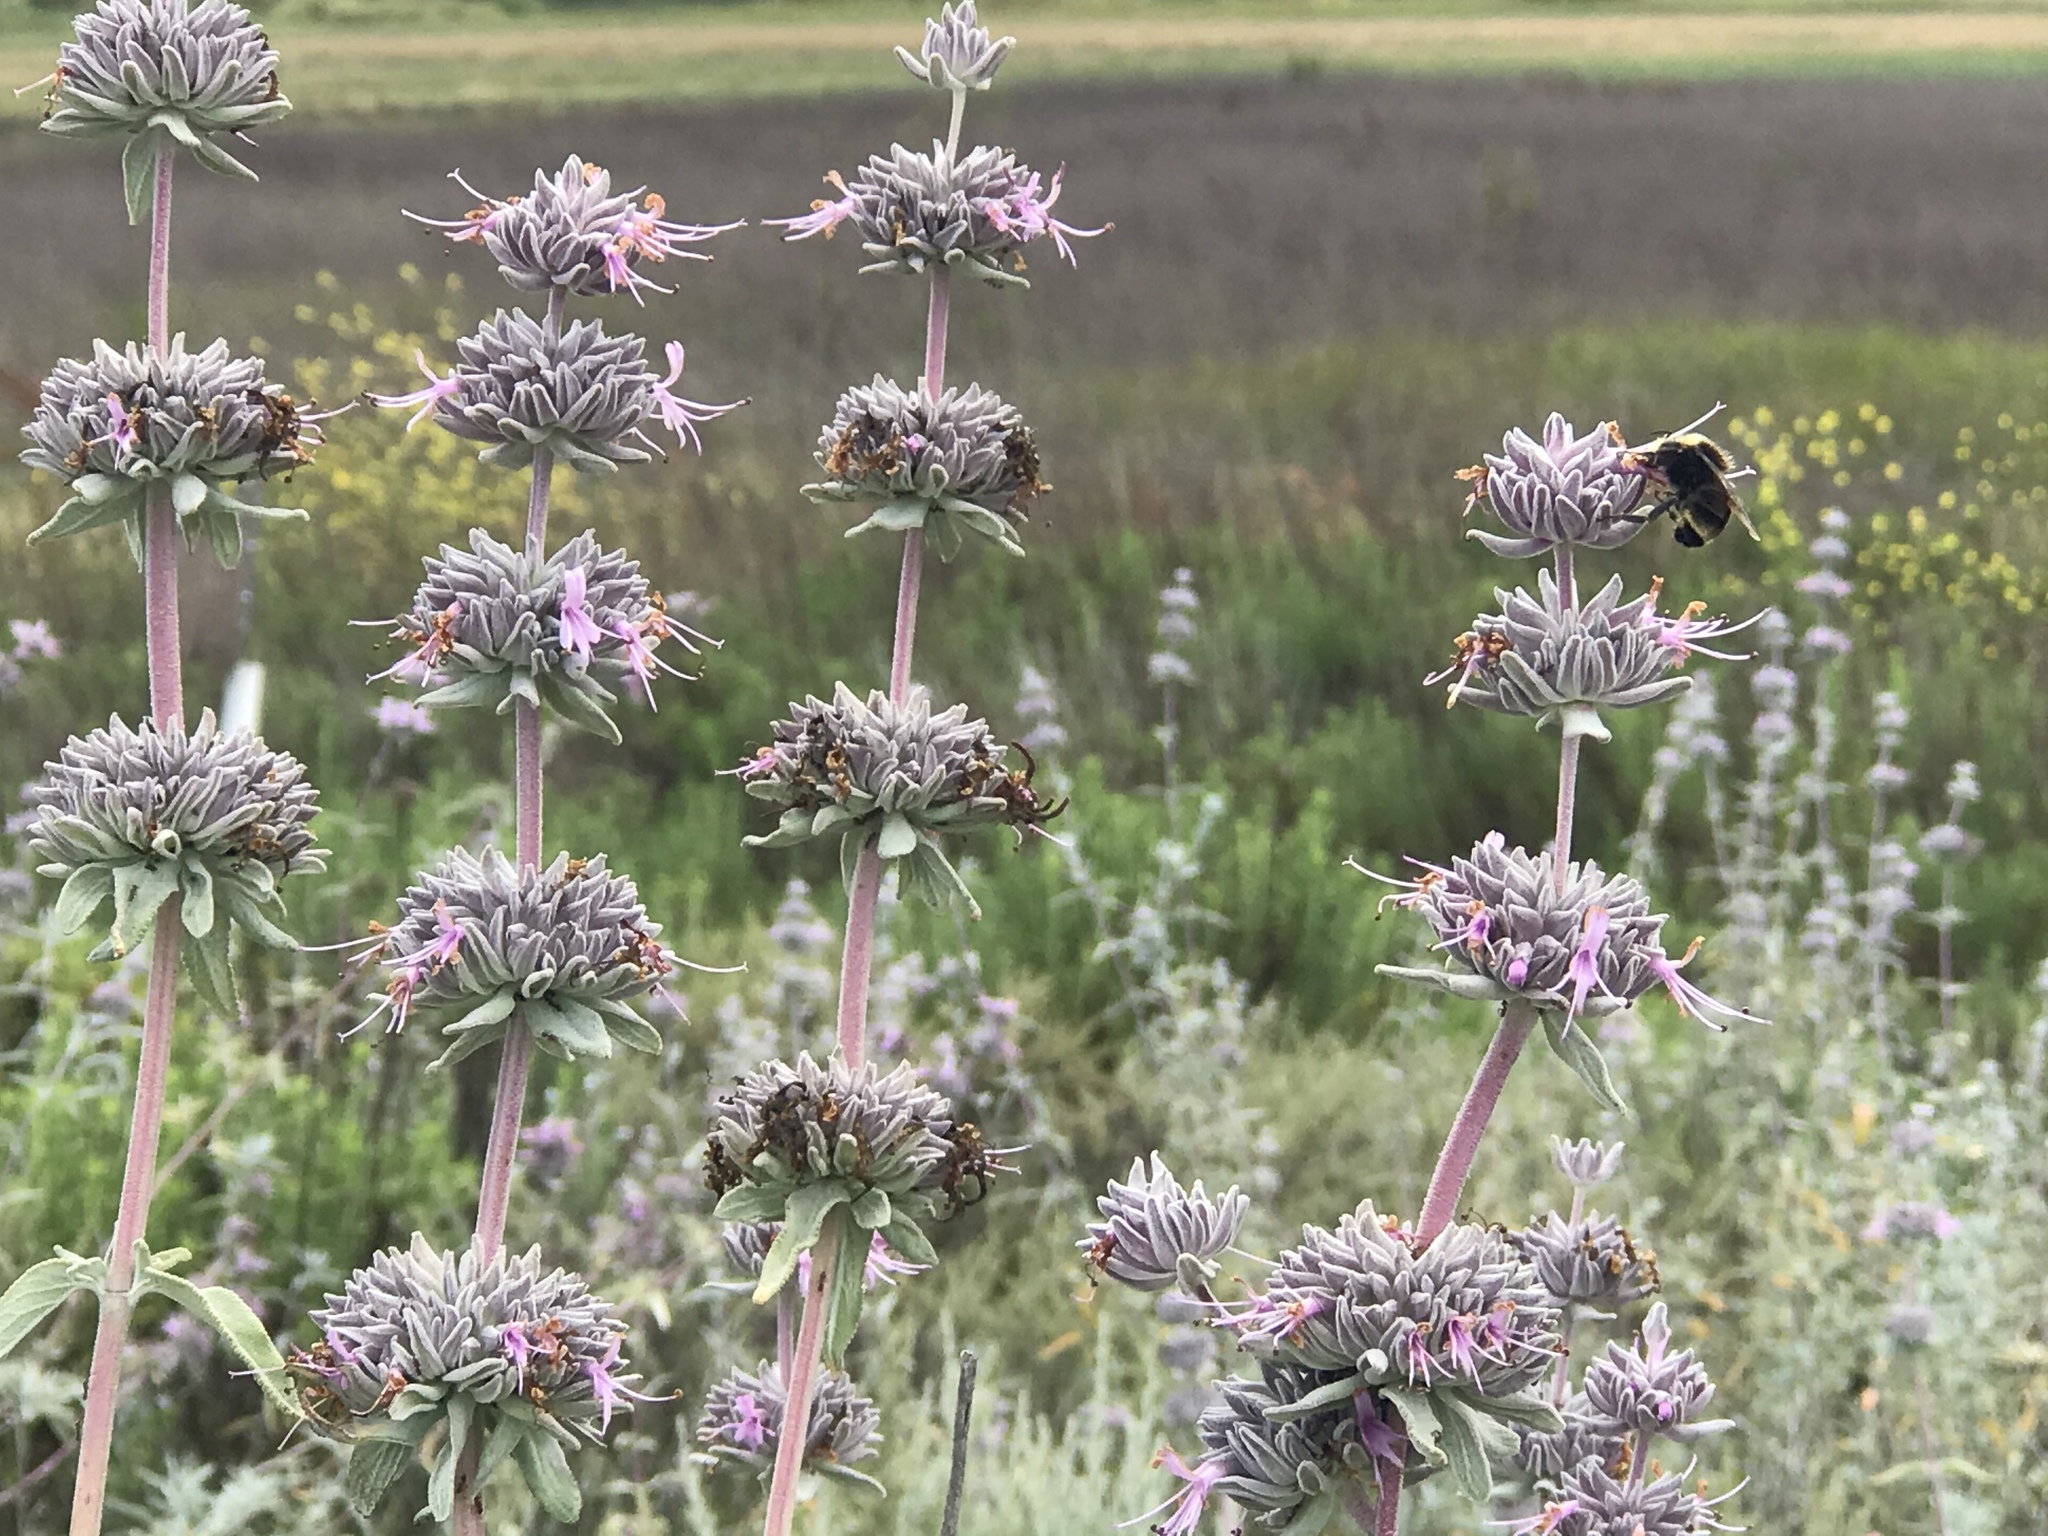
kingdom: Animalia
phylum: Arthropoda
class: Insecta
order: Hymenoptera
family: Apidae
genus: Bombus
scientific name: Bombus vosnesenskii
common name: Vosnesensky bumble bee
